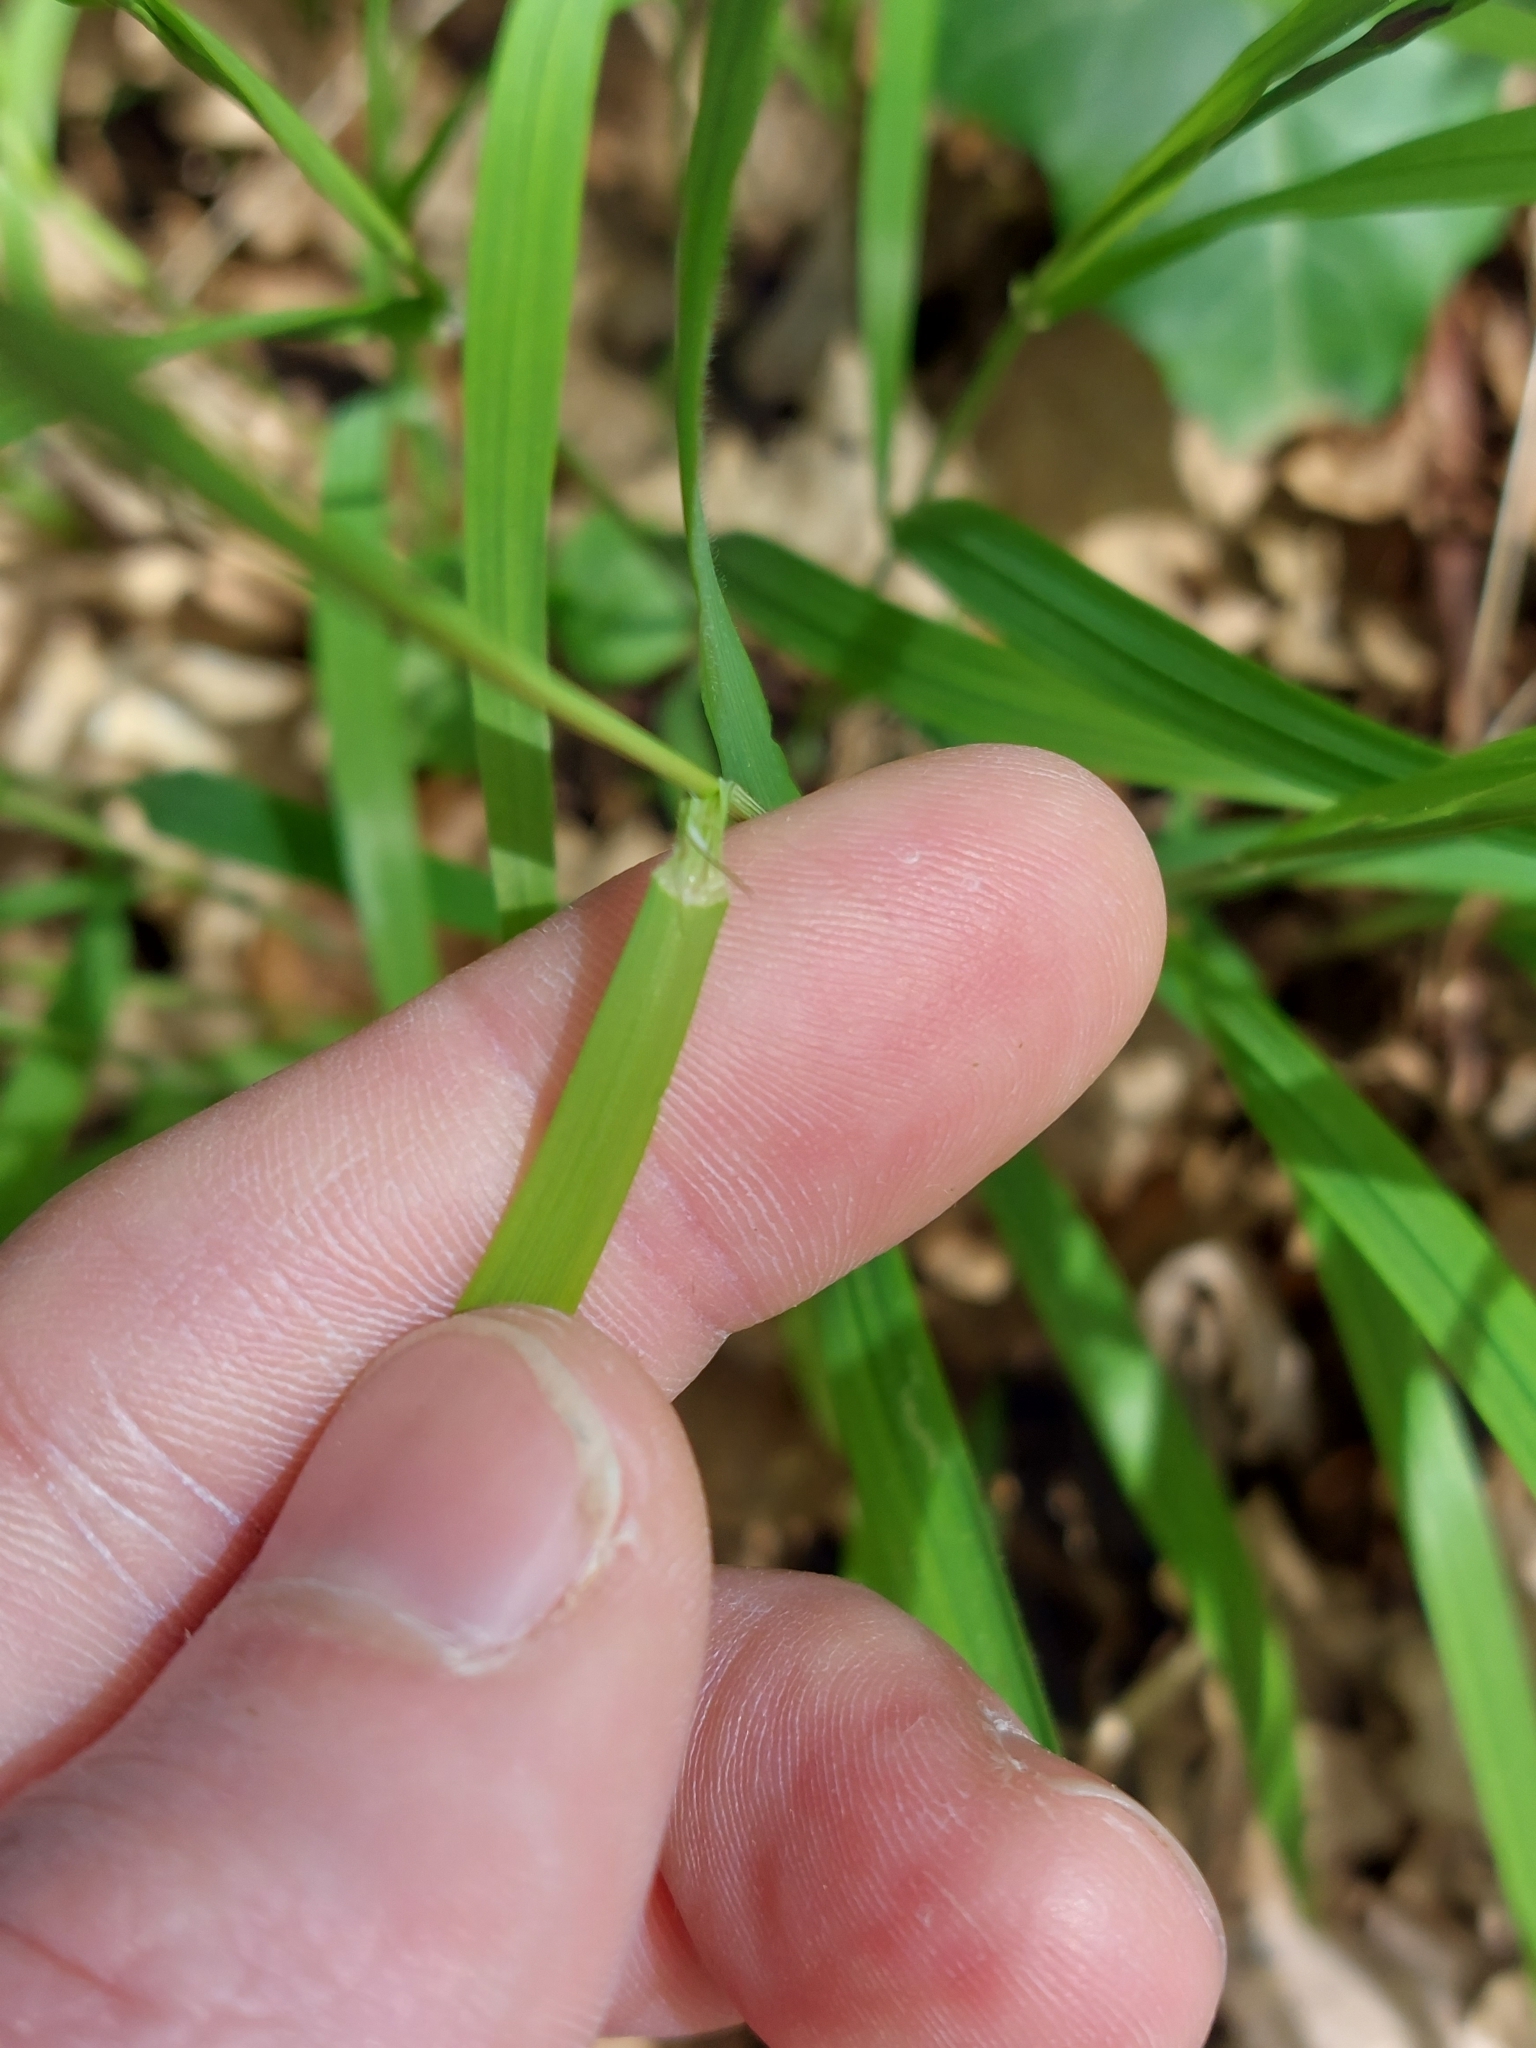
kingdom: Plantae
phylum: Tracheophyta
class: Liliopsida
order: Poales
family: Poaceae
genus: Melica
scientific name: Melica uniflora
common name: Wood melick
